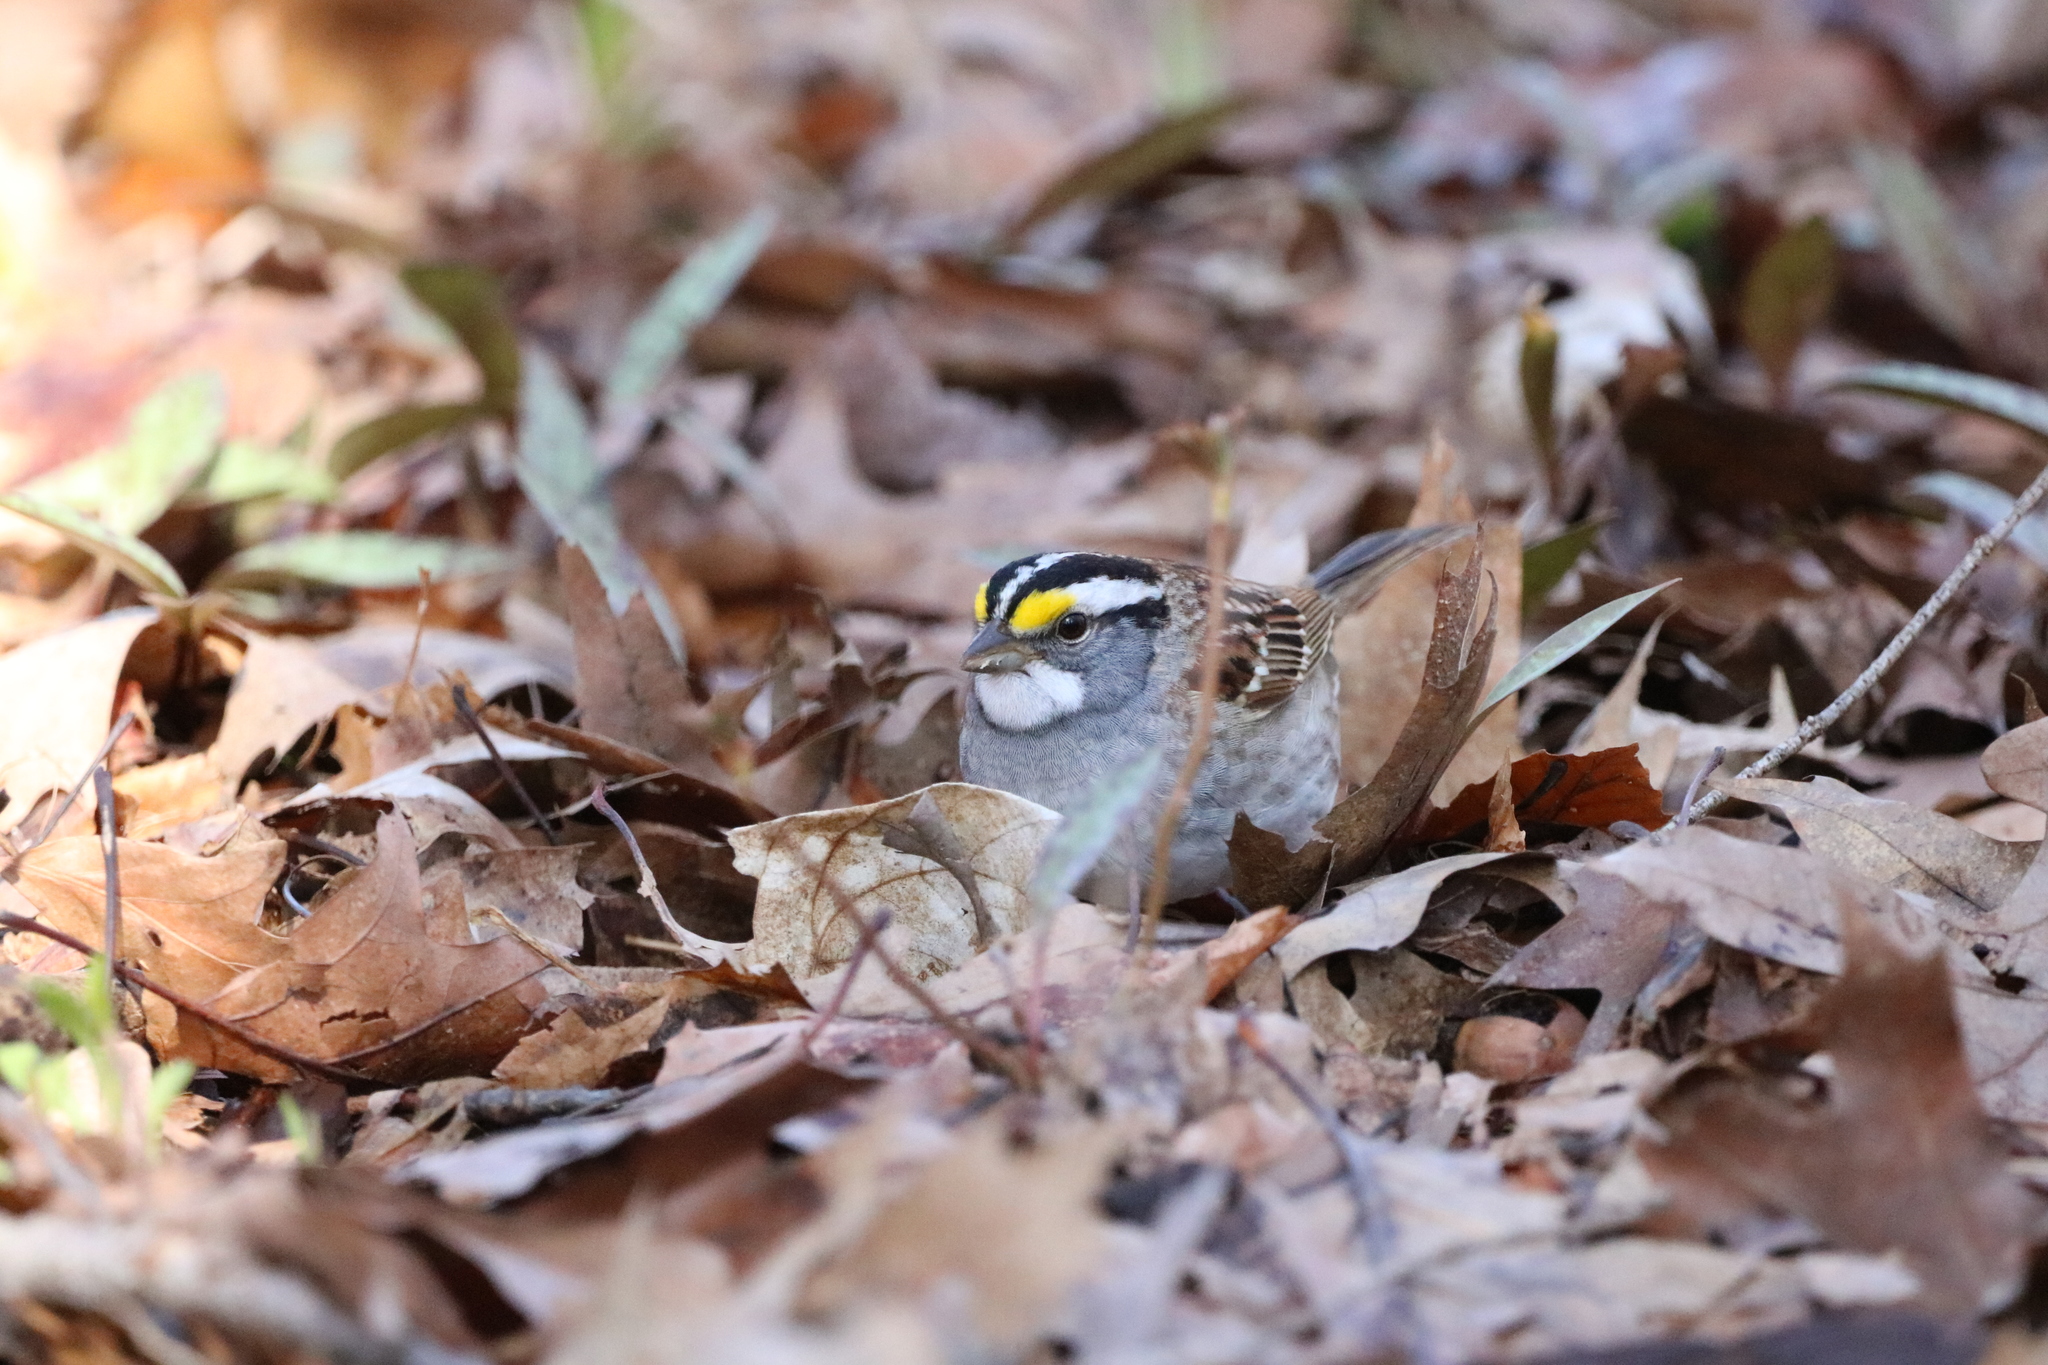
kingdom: Animalia
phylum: Chordata
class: Aves
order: Passeriformes
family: Passerellidae
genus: Zonotrichia
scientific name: Zonotrichia albicollis
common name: White-throated sparrow
